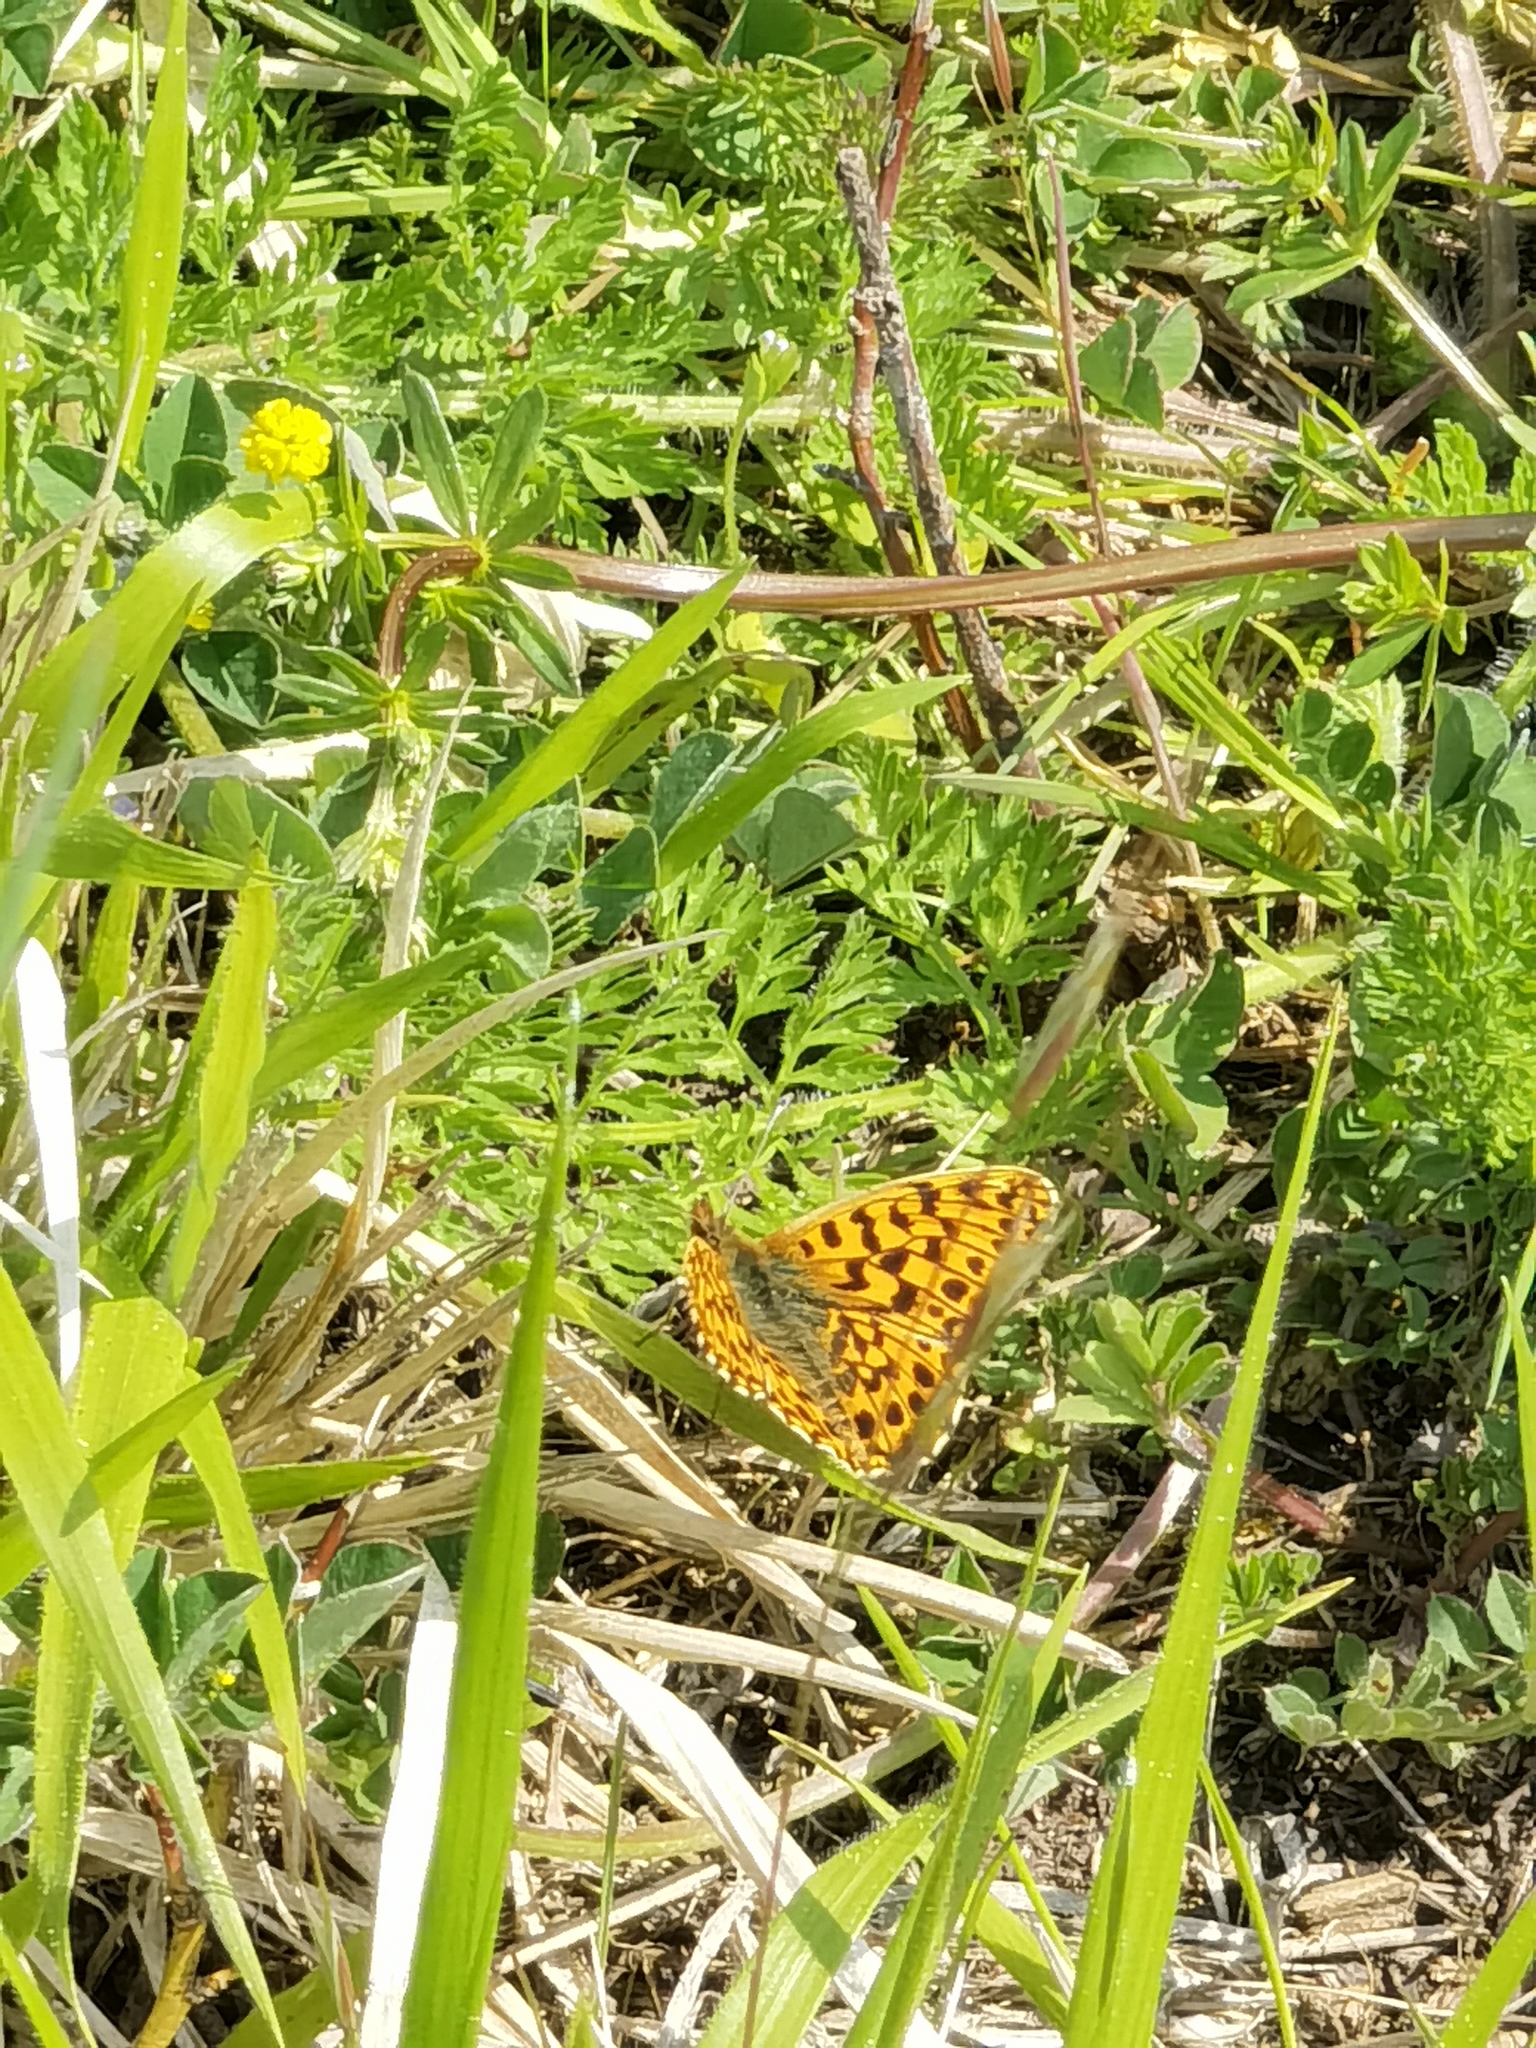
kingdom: Animalia
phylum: Arthropoda
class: Insecta
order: Lepidoptera
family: Nymphalidae
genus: Boloria
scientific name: Boloria dia
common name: Weaver's fritillary
